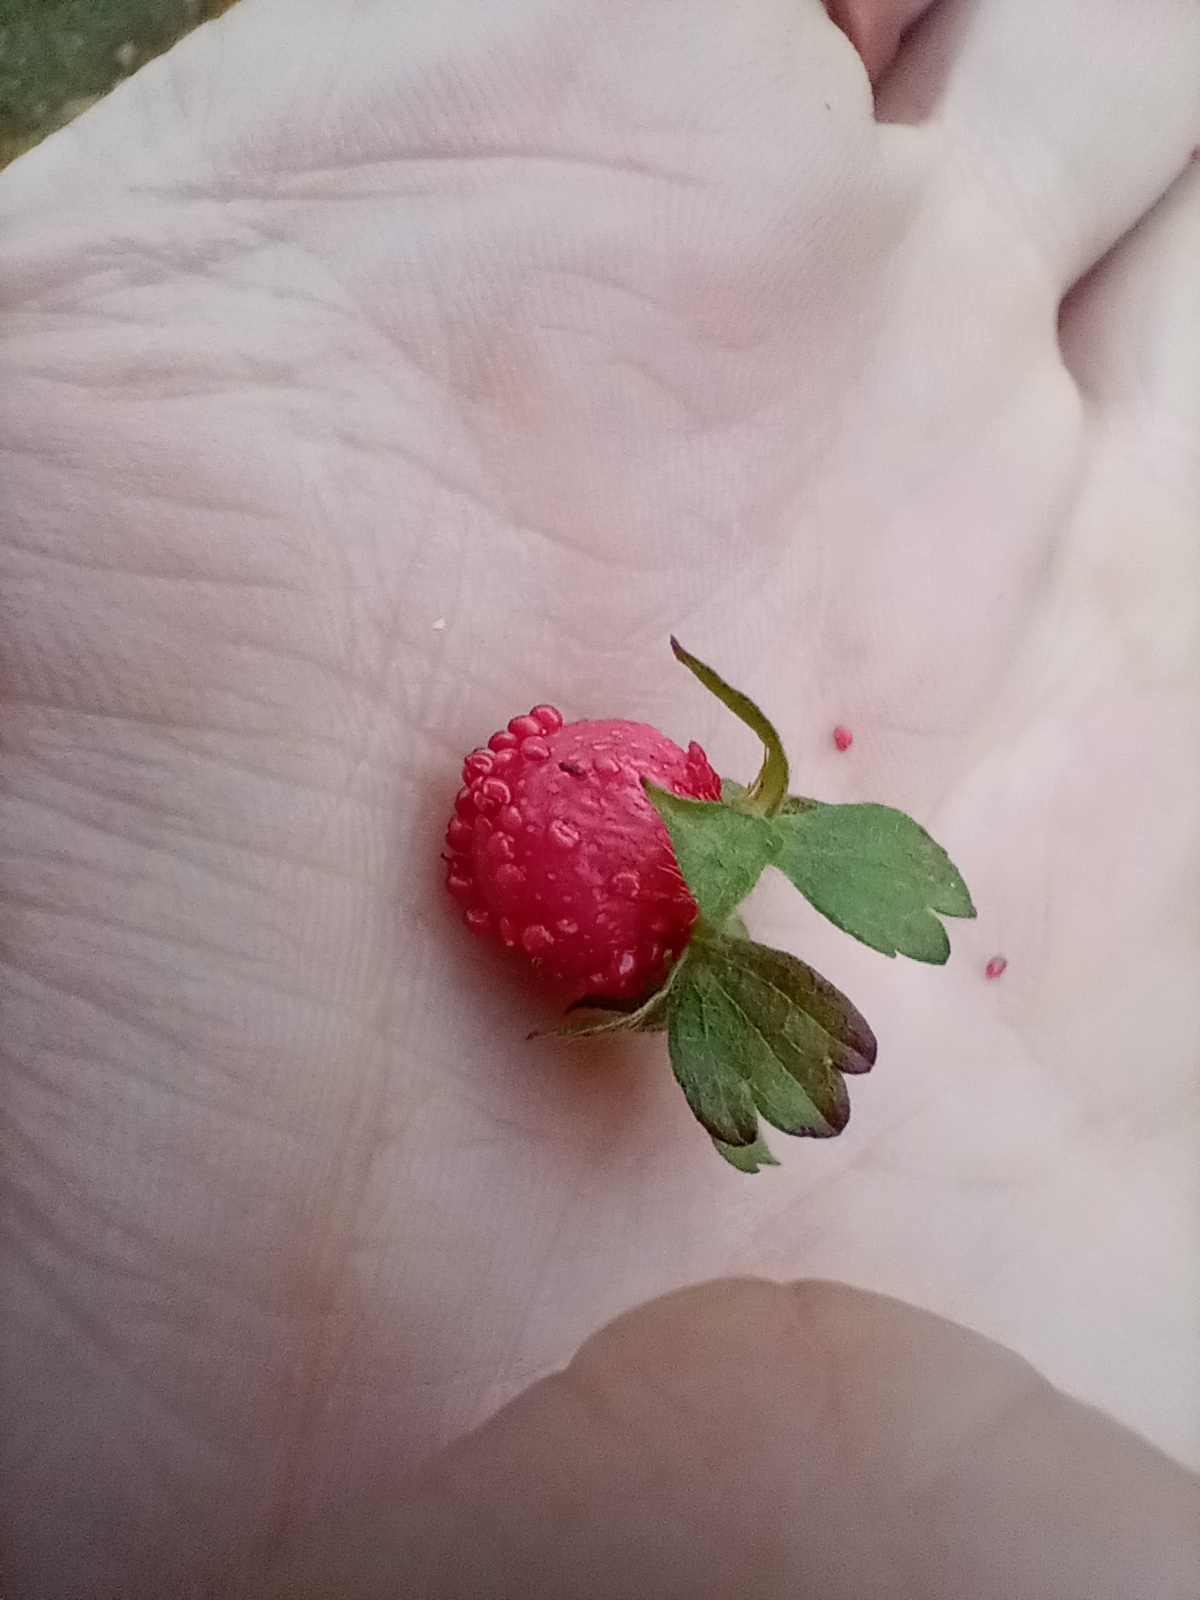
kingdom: Plantae
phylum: Tracheophyta
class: Magnoliopsida
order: Rosales
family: Rosaceae
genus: Potentilla
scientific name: Potentilla indica
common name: Yellow-flowered strawberry
